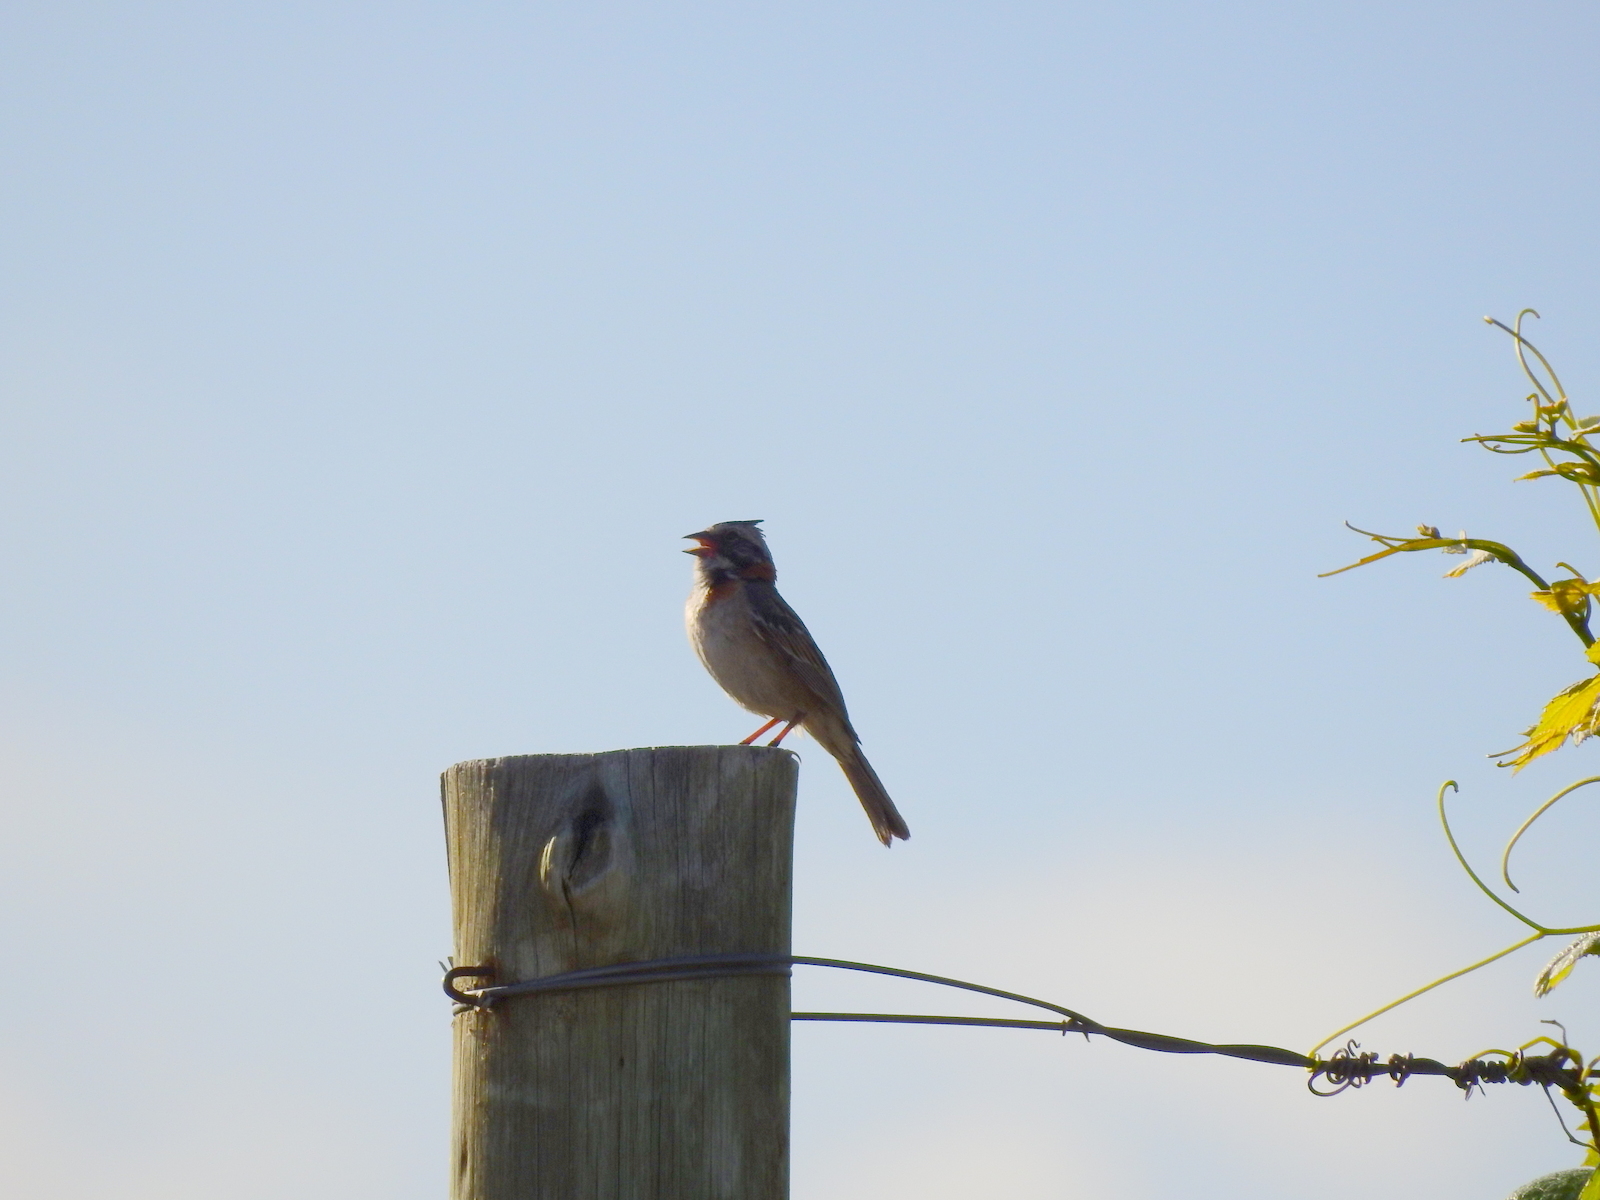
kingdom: Animalia
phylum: Chordata
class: Aves
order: Passeriformes
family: Passerellidae
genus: Zonotrichia
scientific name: Zonotrichia capensis
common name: Rufous-collared sparrow
